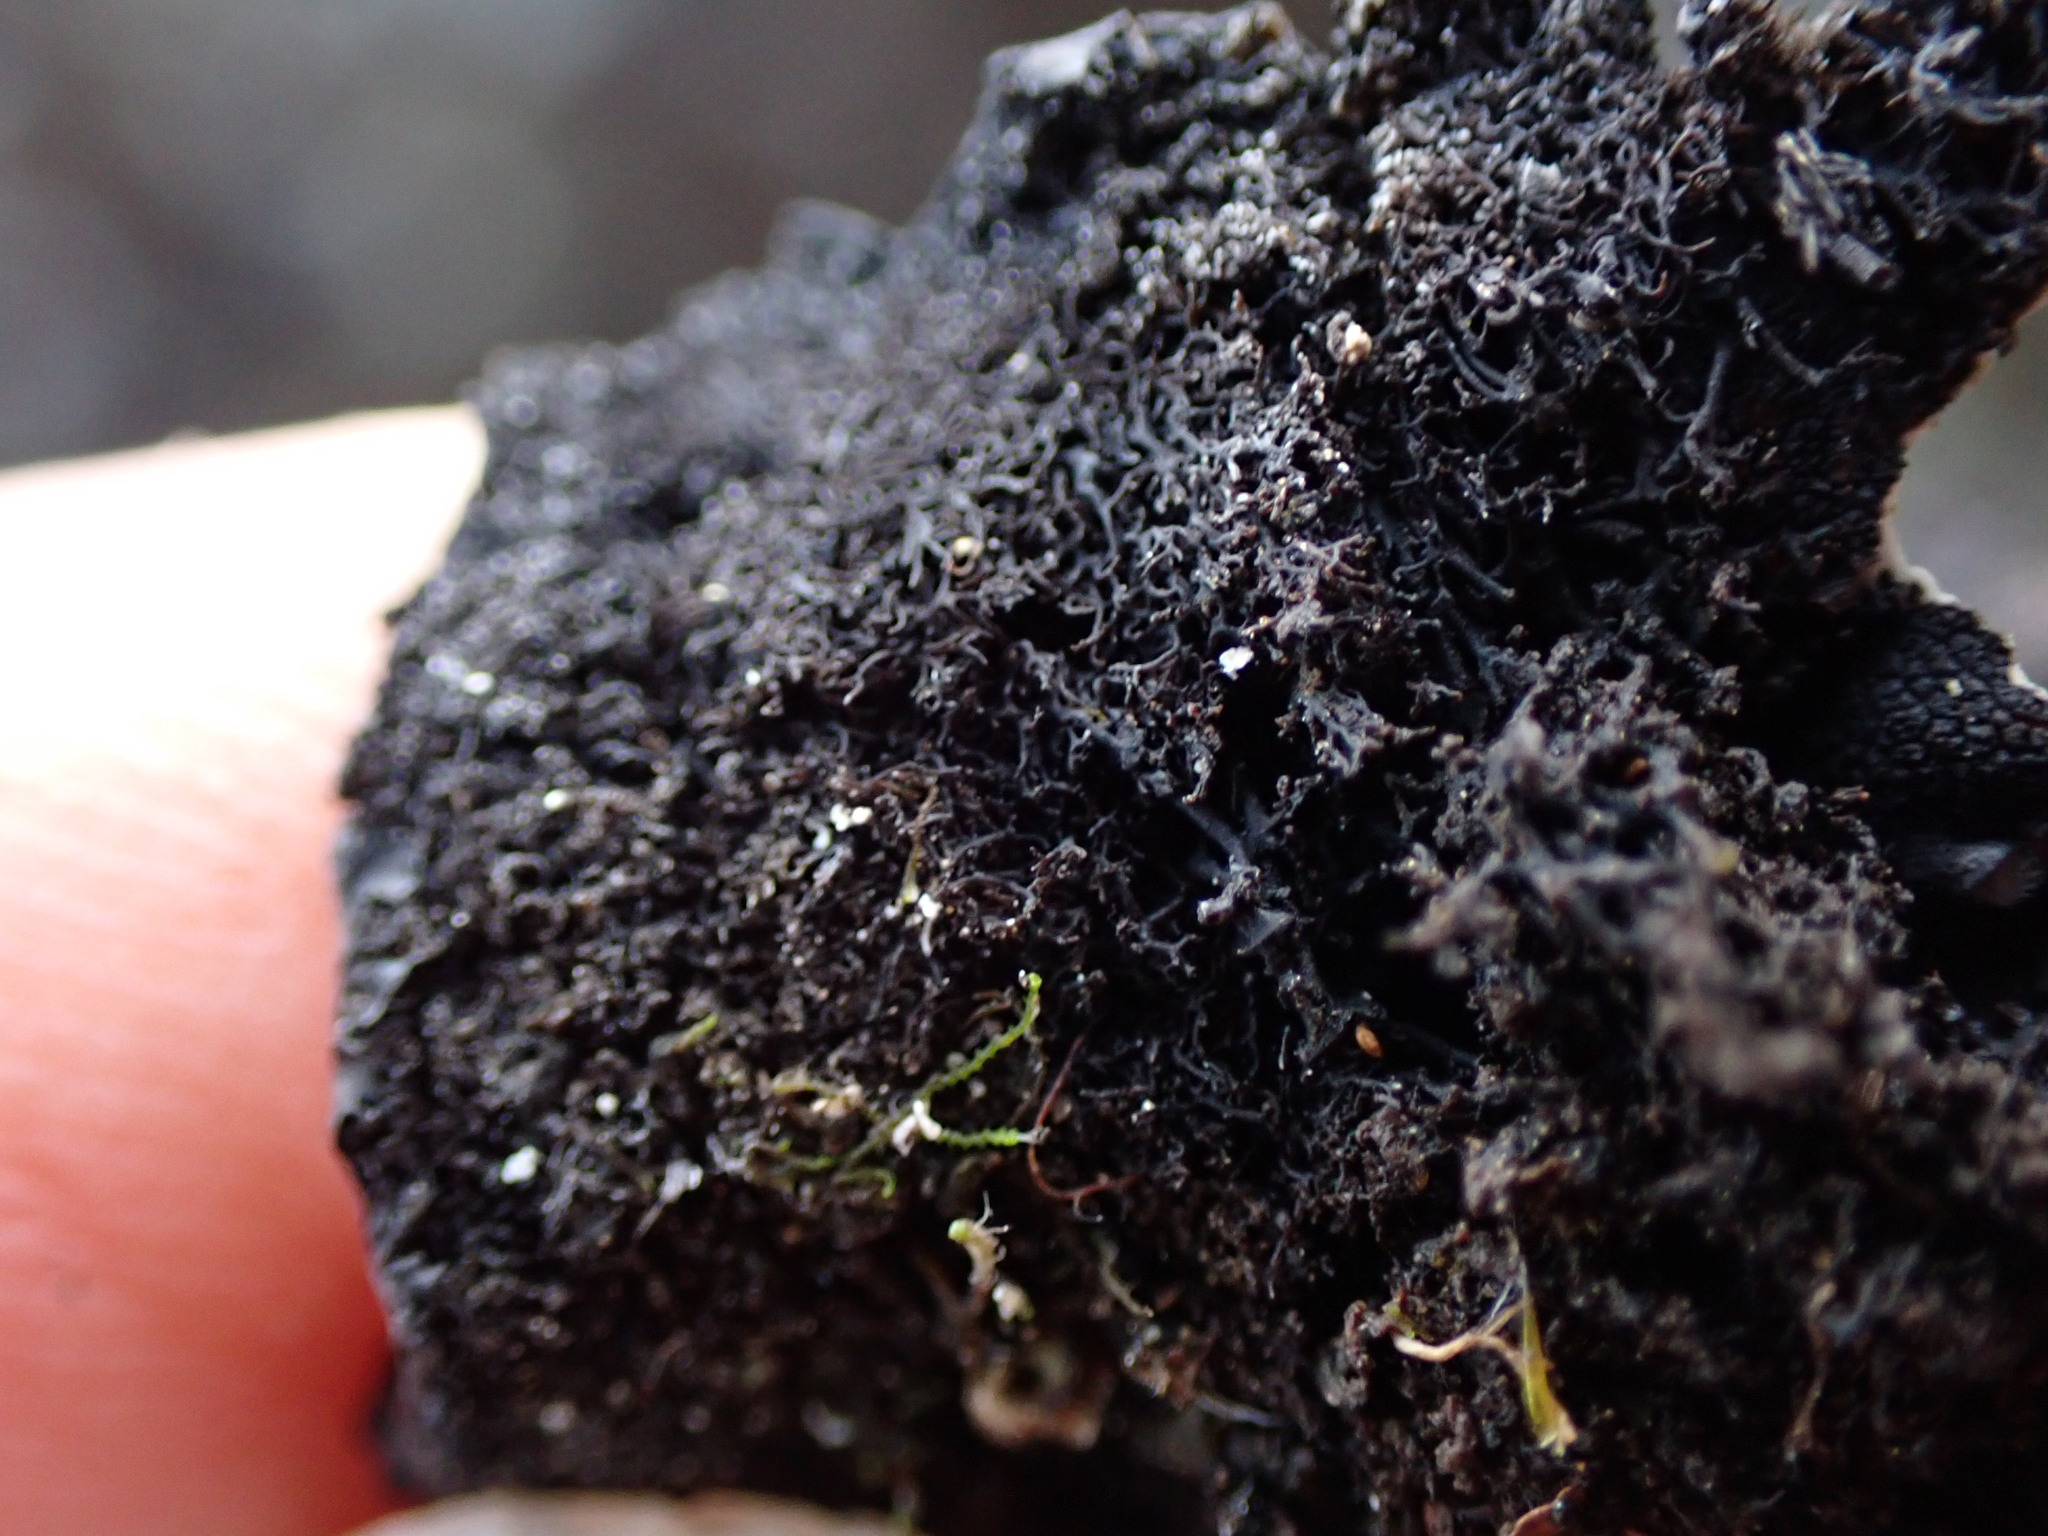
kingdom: Fungi
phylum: Ascomycota
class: Lecanoromycetes
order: Umbilicariales
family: Umbilicariaceae
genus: Umbilicaria
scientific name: Umbilicaria polyrrhiza
